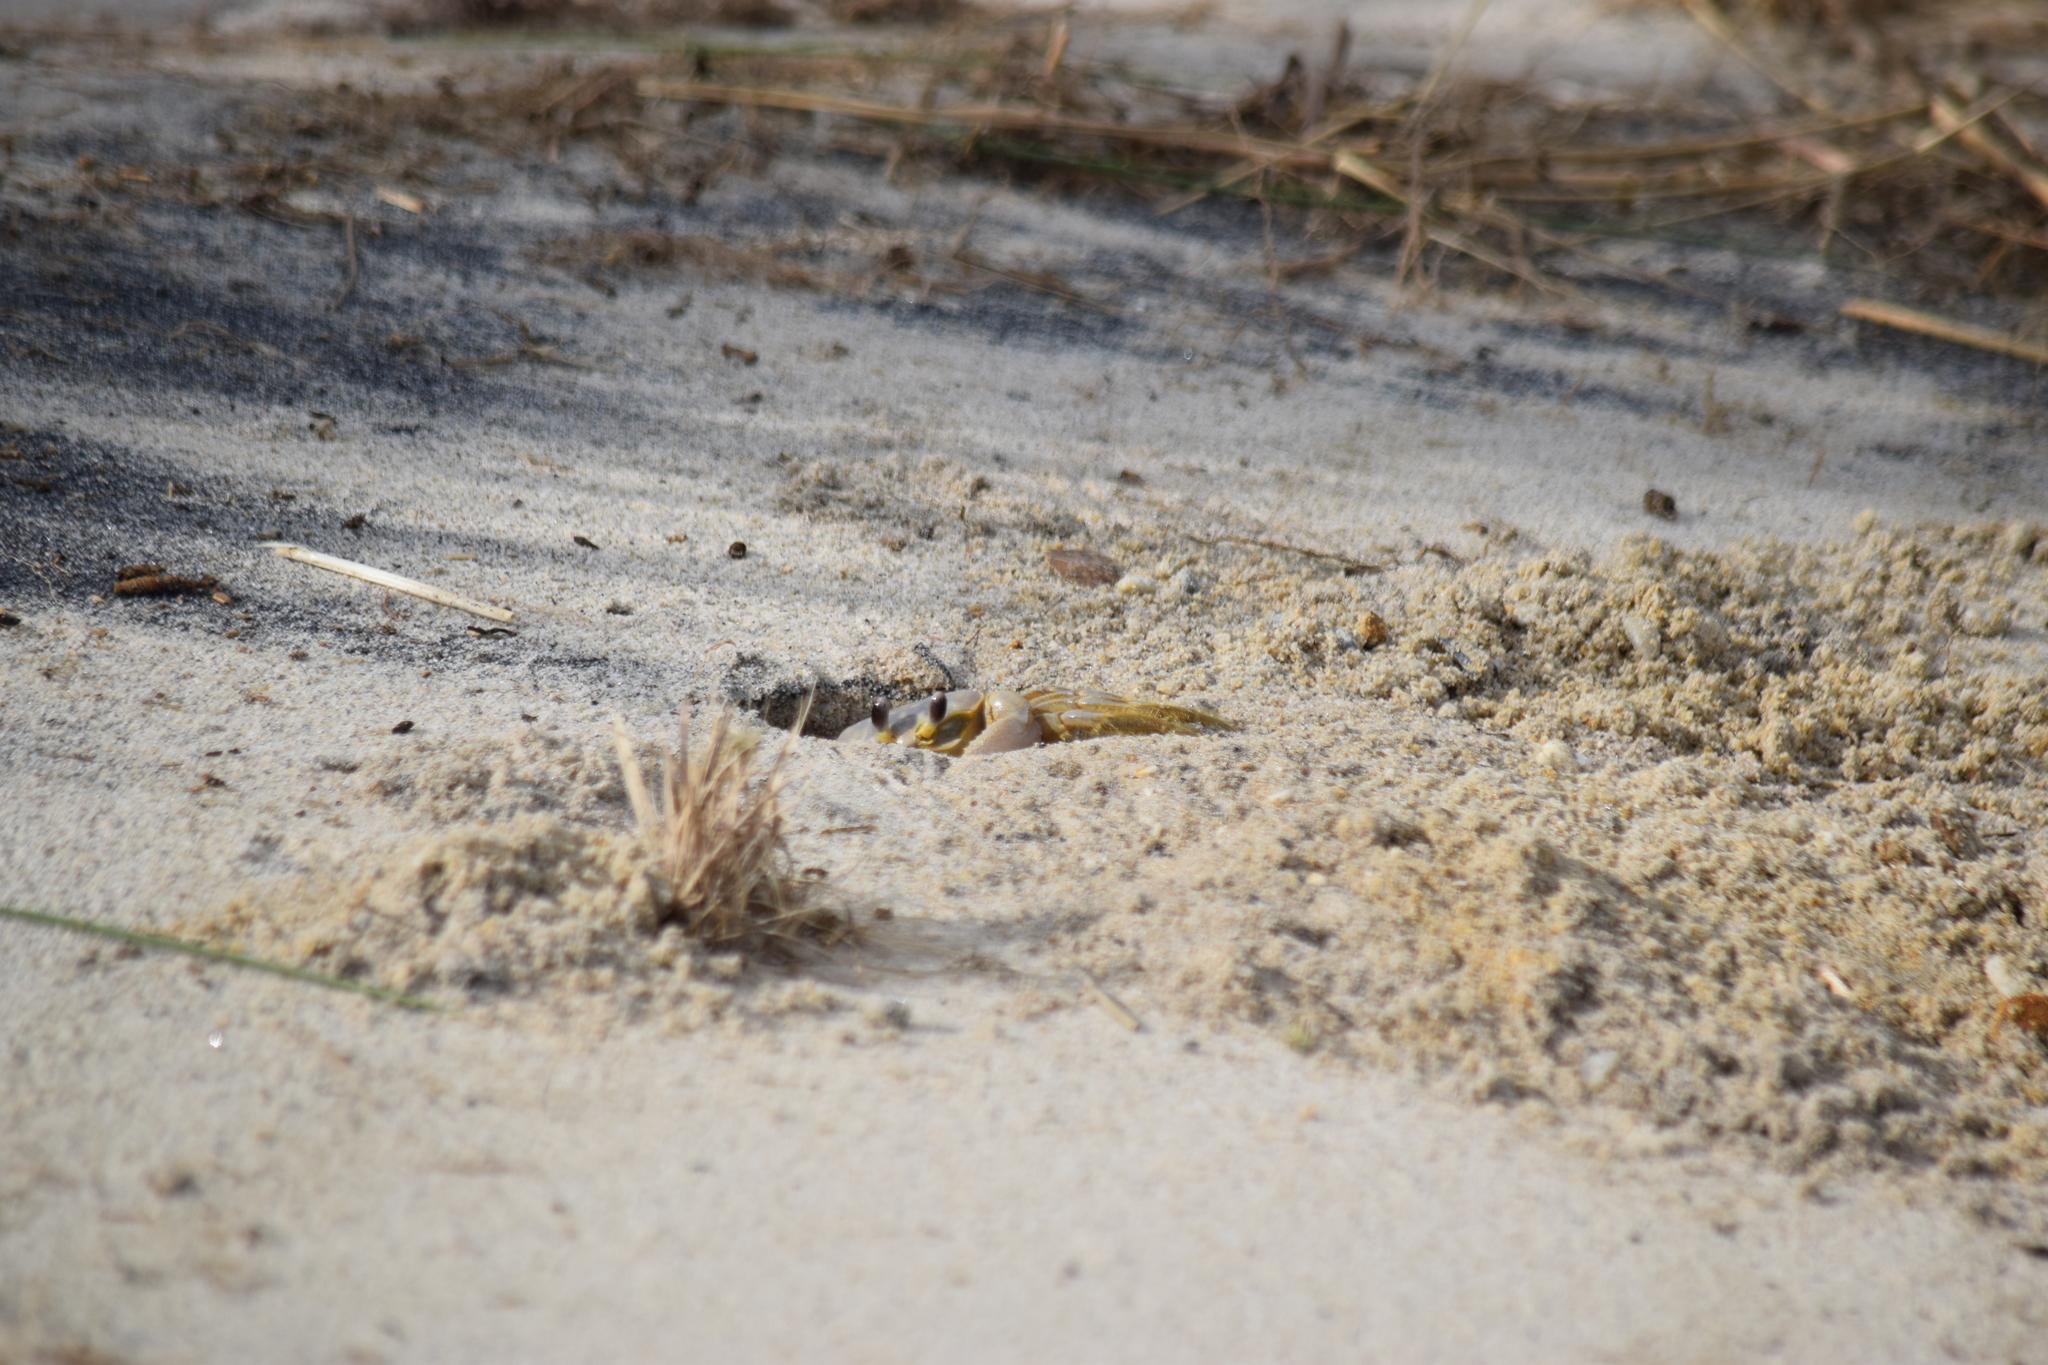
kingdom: Animalia
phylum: Arthropoda
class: Malacostraca
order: Decapoda
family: Ocypodidae
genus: Ocypode
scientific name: Ocypode quadrata
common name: Ghost crab
